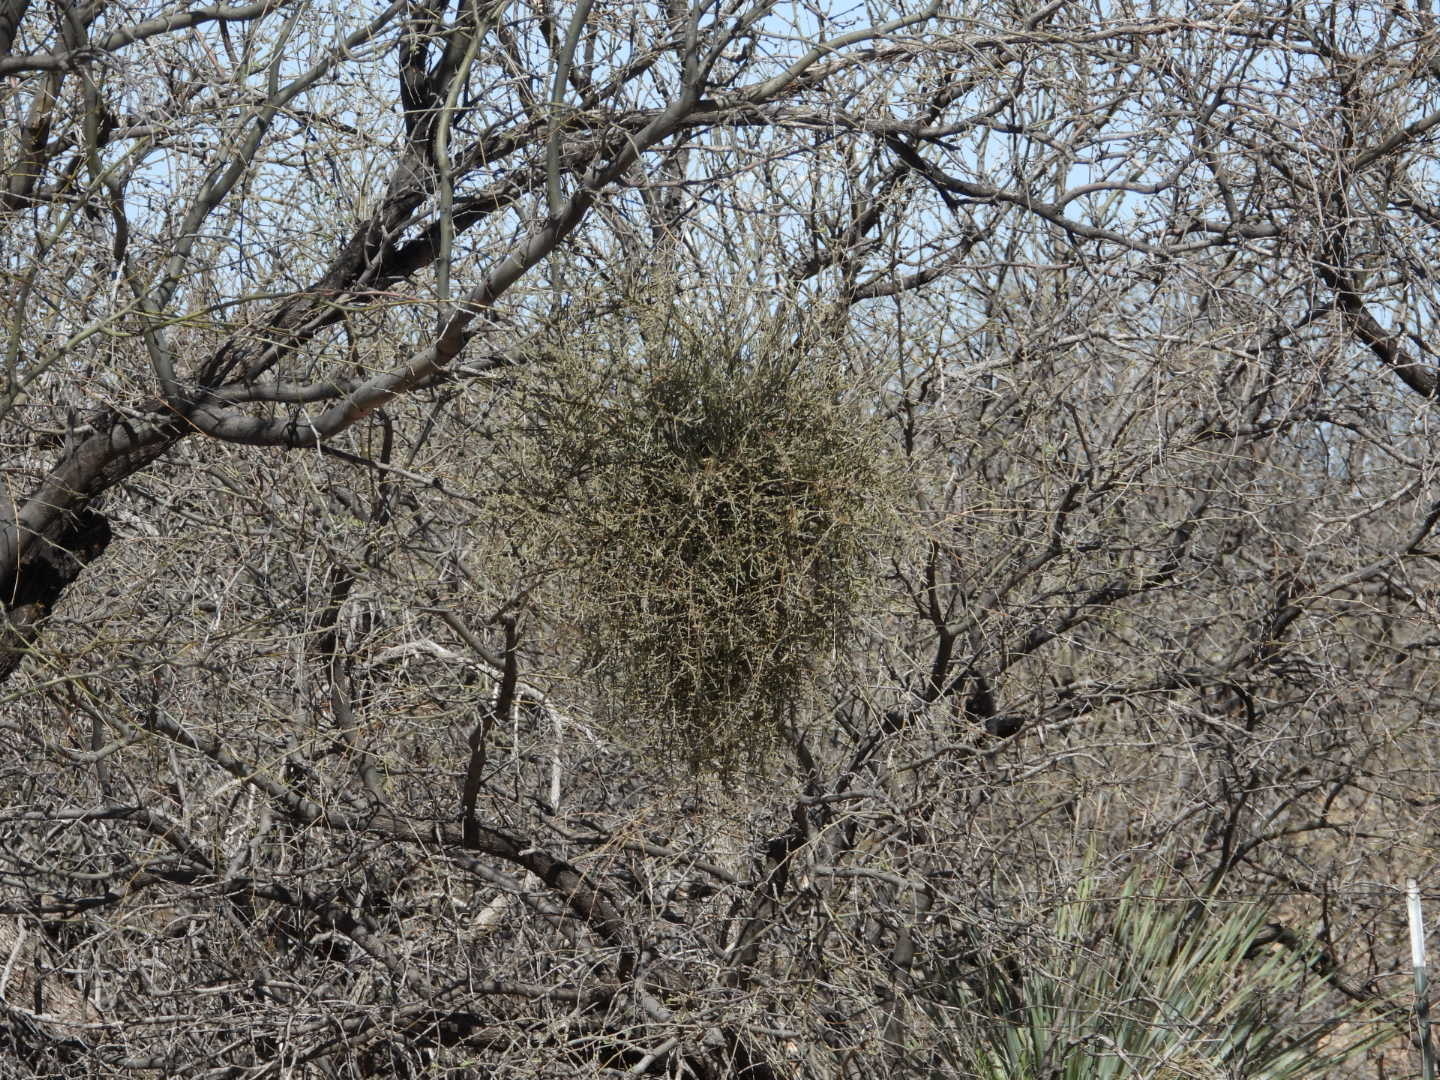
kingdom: Plantae
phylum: Tracheophyta
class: Magnoliopsida
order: Santalales
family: Viscaceae
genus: Phoradendron
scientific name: Phoradendron californicum
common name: Acacia mistletoe
